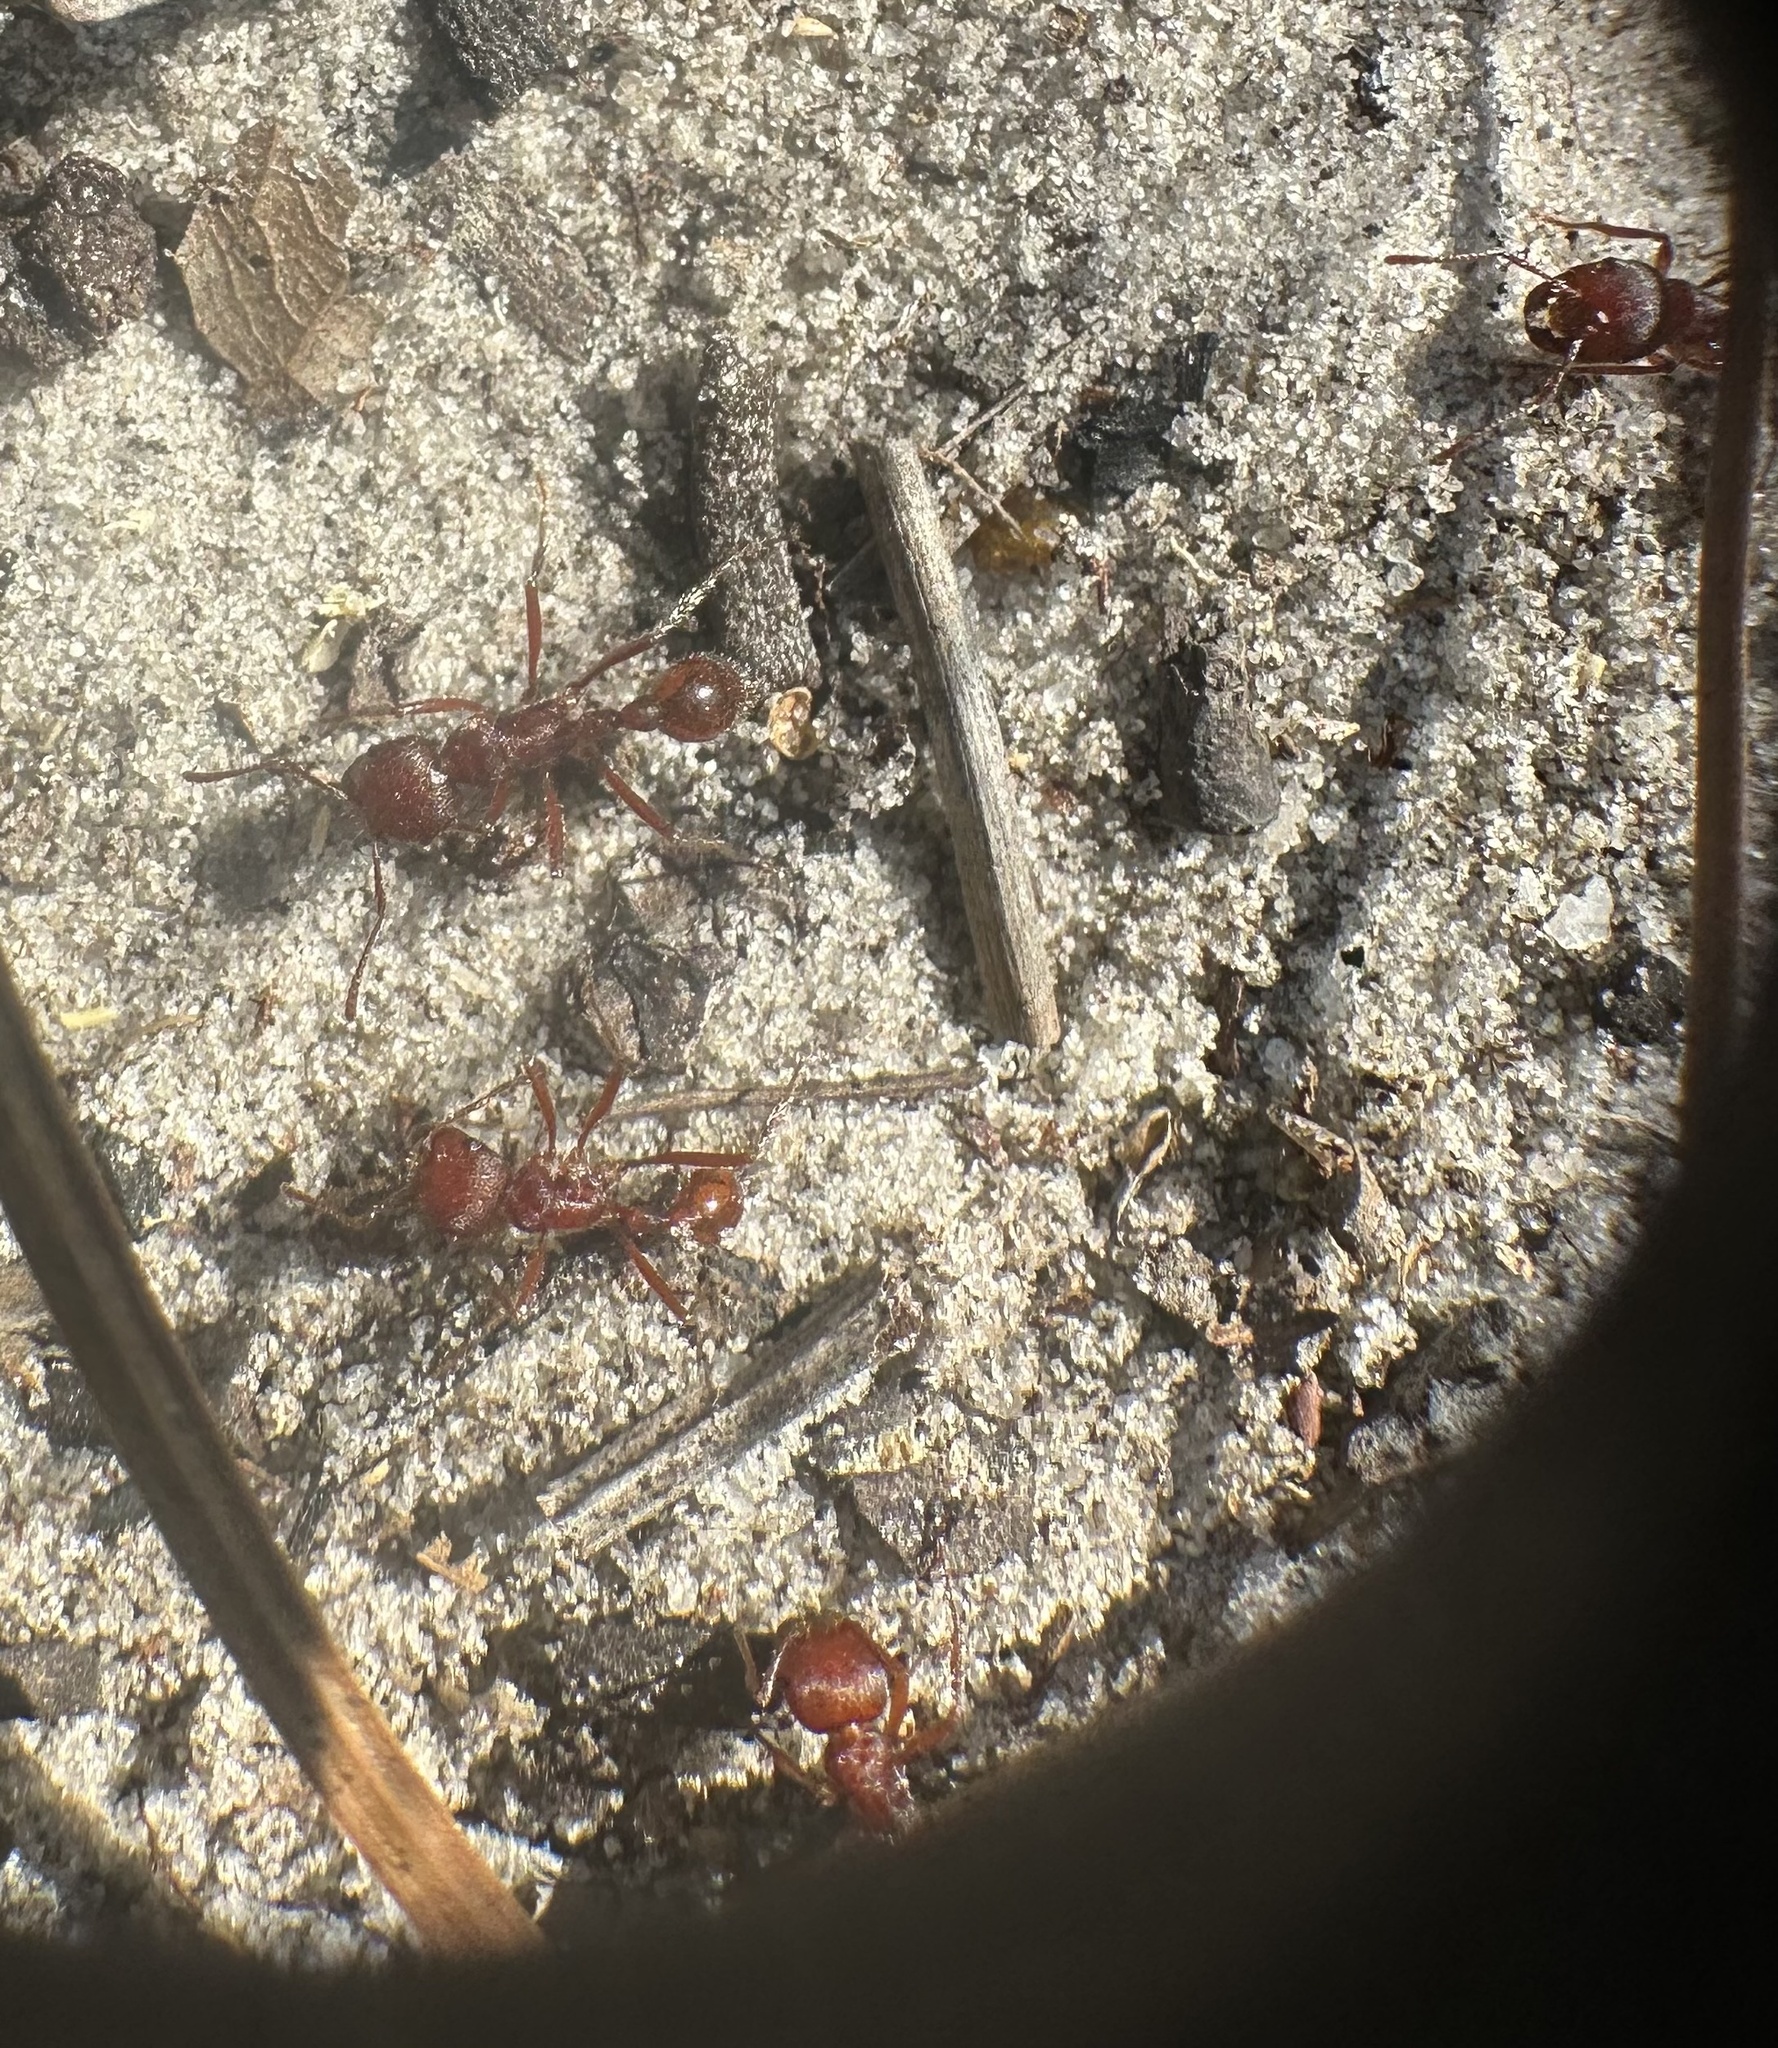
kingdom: Animalia
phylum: Arthropoda
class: Insecta
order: Hymenoptera
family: Formicidae
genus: Pogonomyrmex
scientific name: Pogonomyrmex badius
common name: Florida harvester ant
